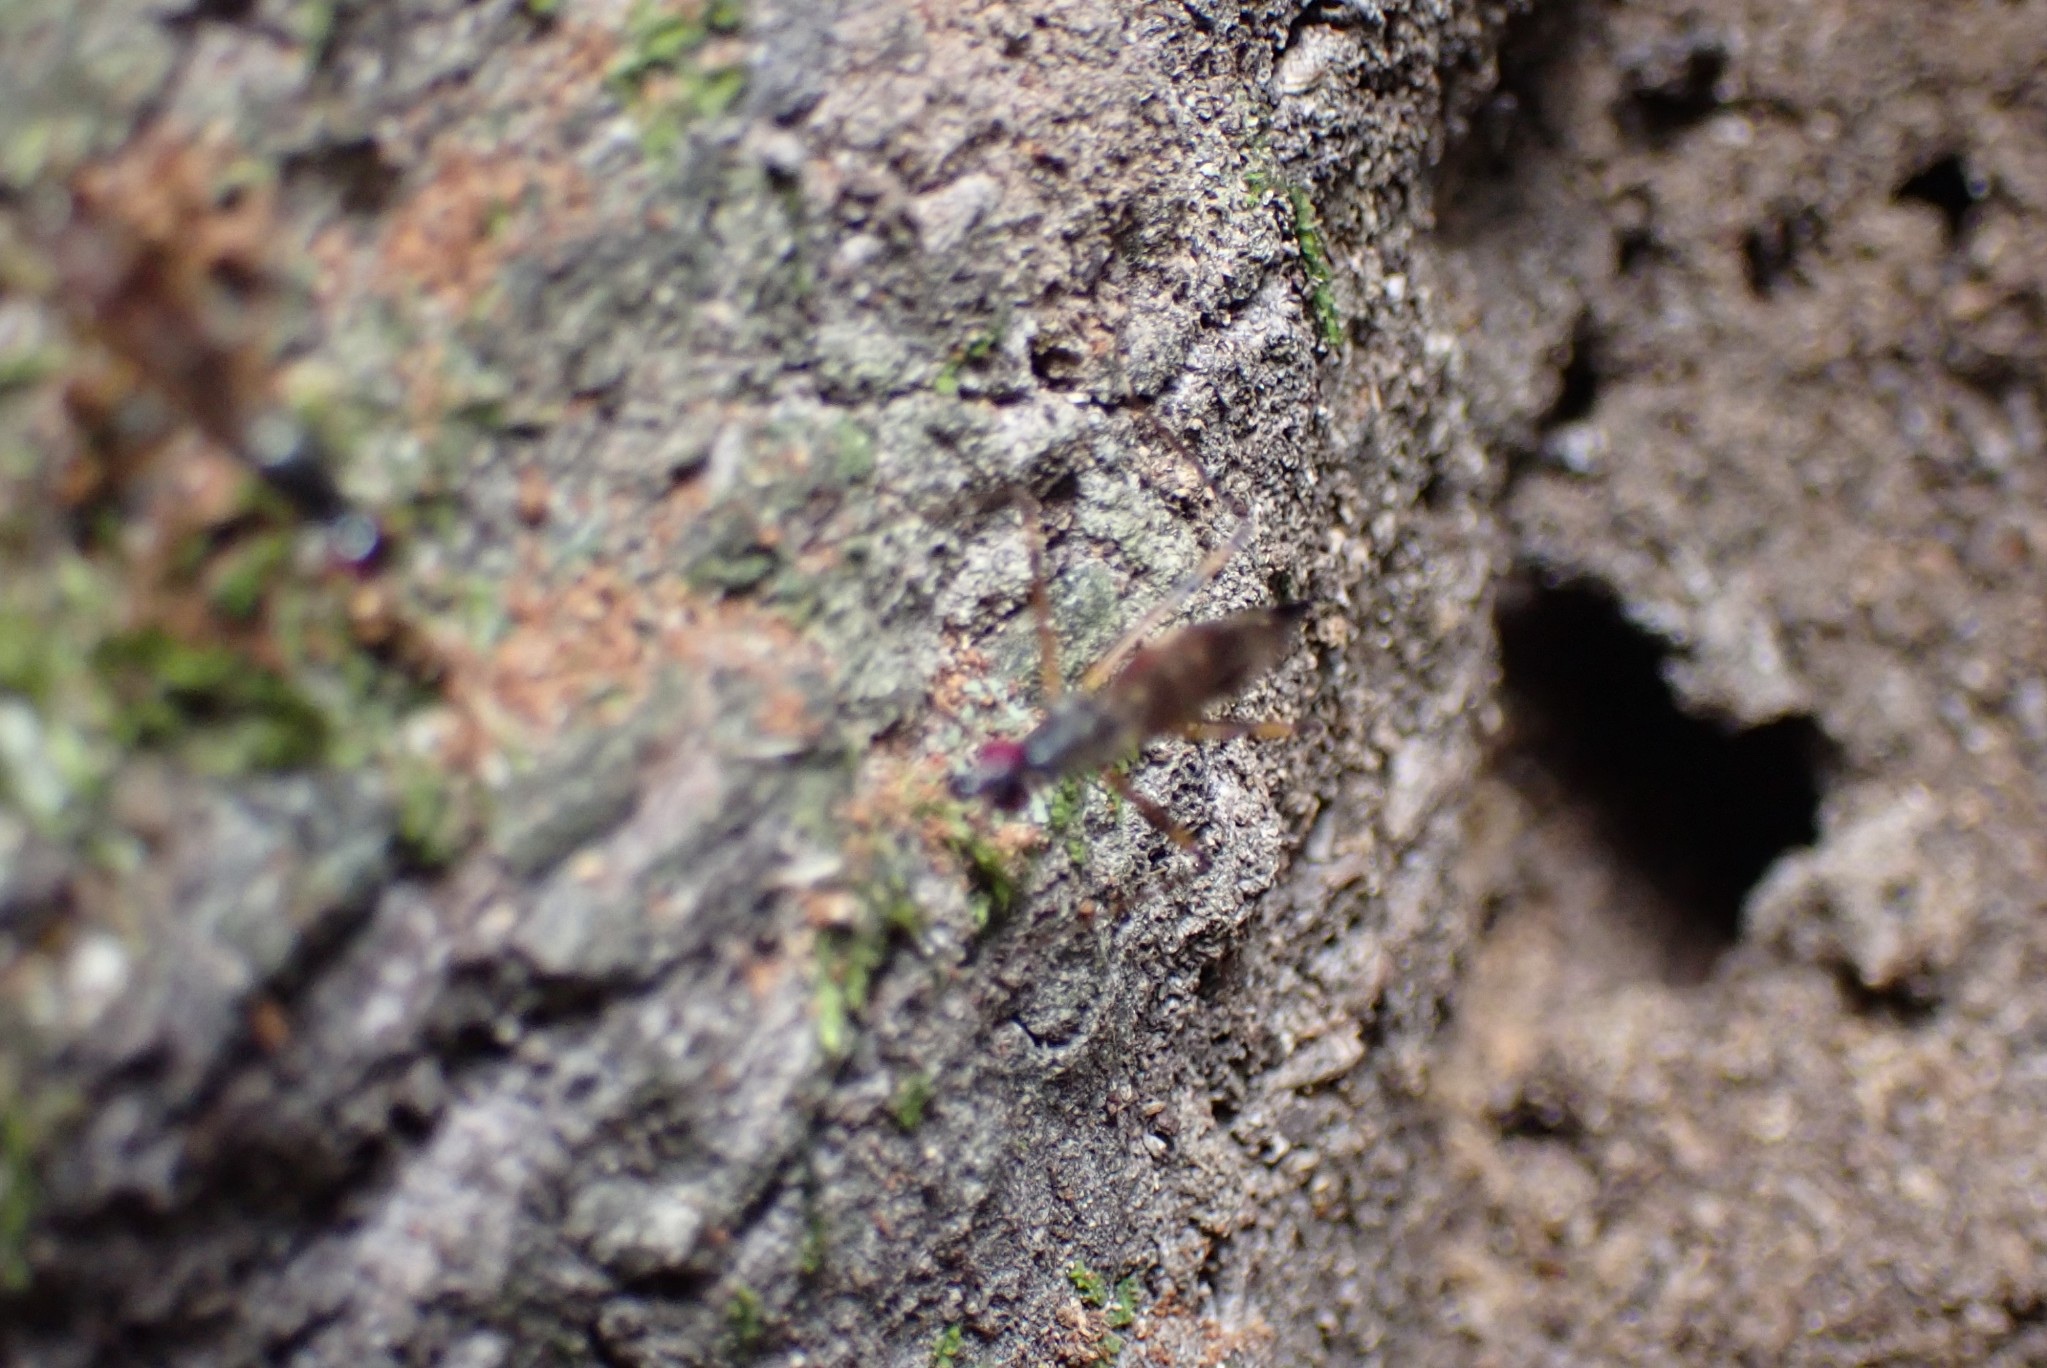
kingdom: Animalia
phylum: Arthropoda
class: Insecta
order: Diptera
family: Micropezidae
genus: Rainieria
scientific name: Rainieria antennaepes
